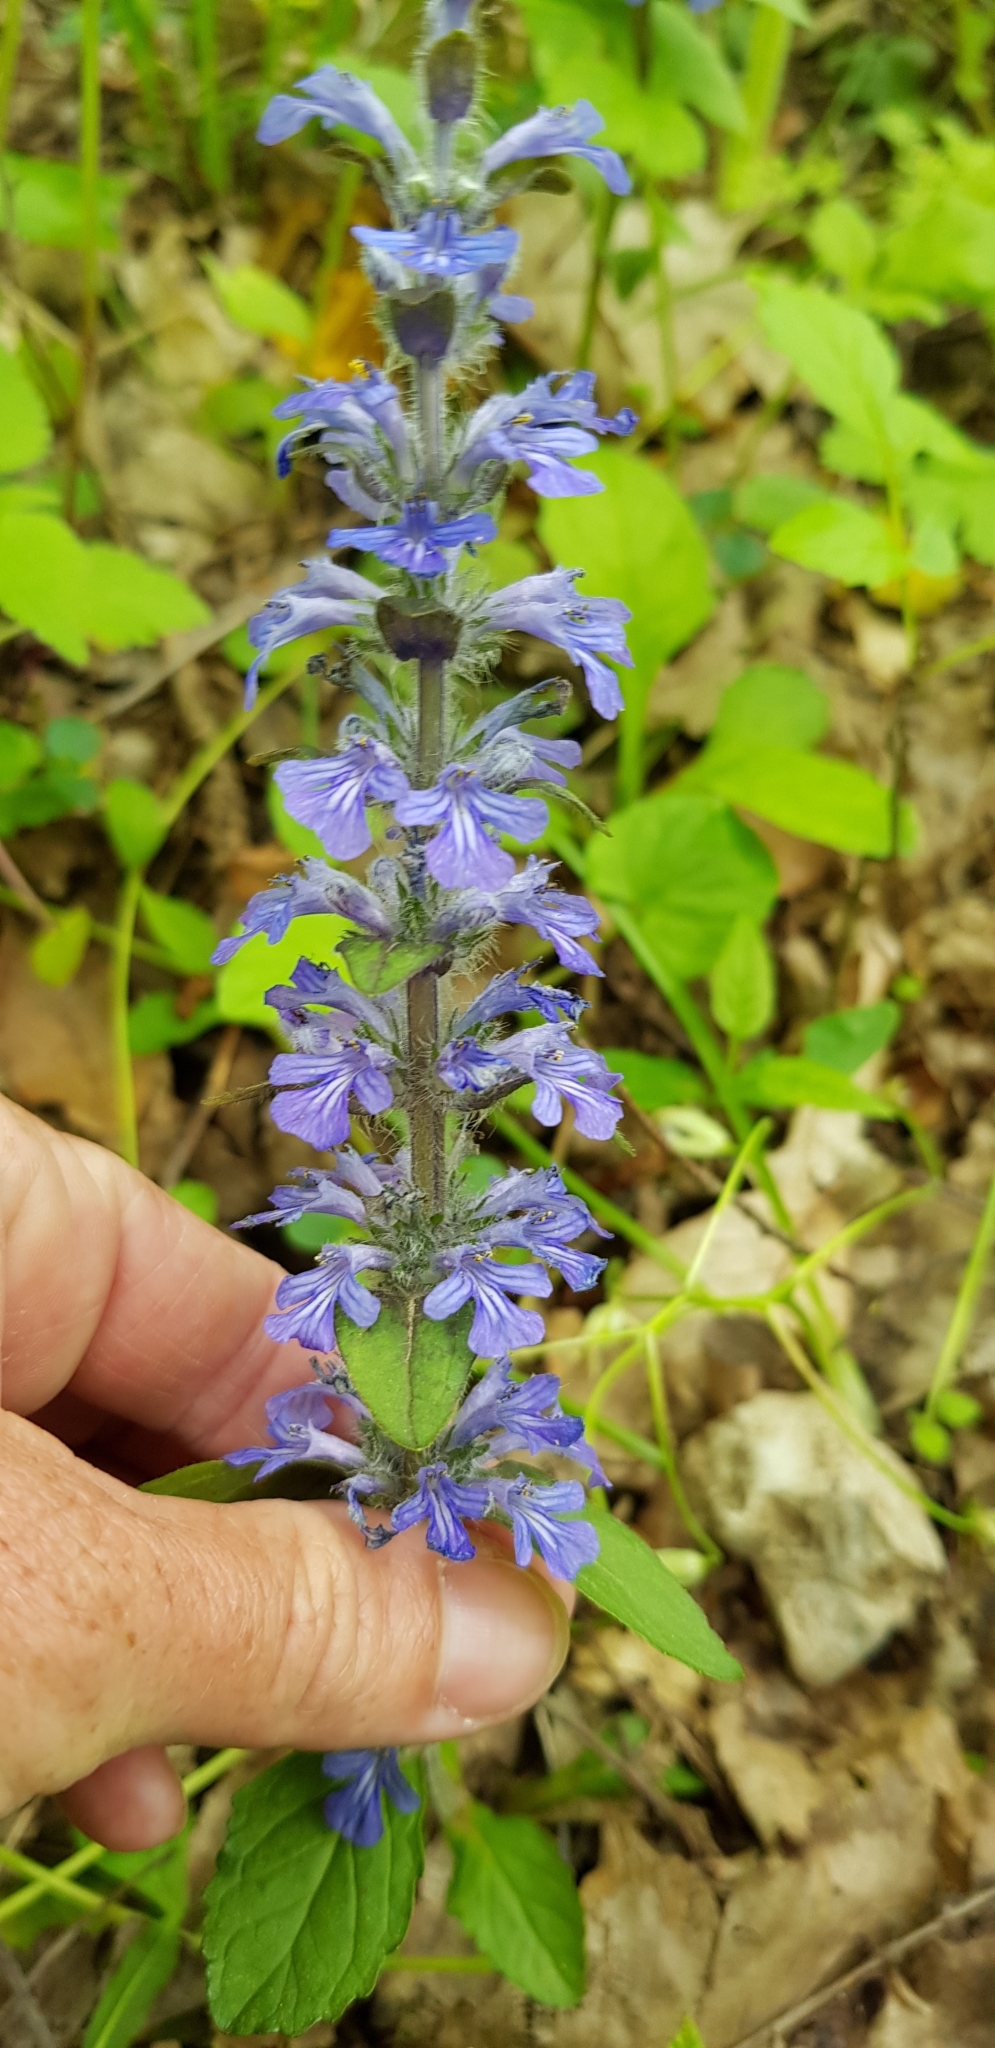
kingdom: Plantae
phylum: Tracheophyta
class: Magnoliopsida
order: Lamiales
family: Lamiaceae
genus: Ajuga
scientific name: Ajuga reptans
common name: Bugle
